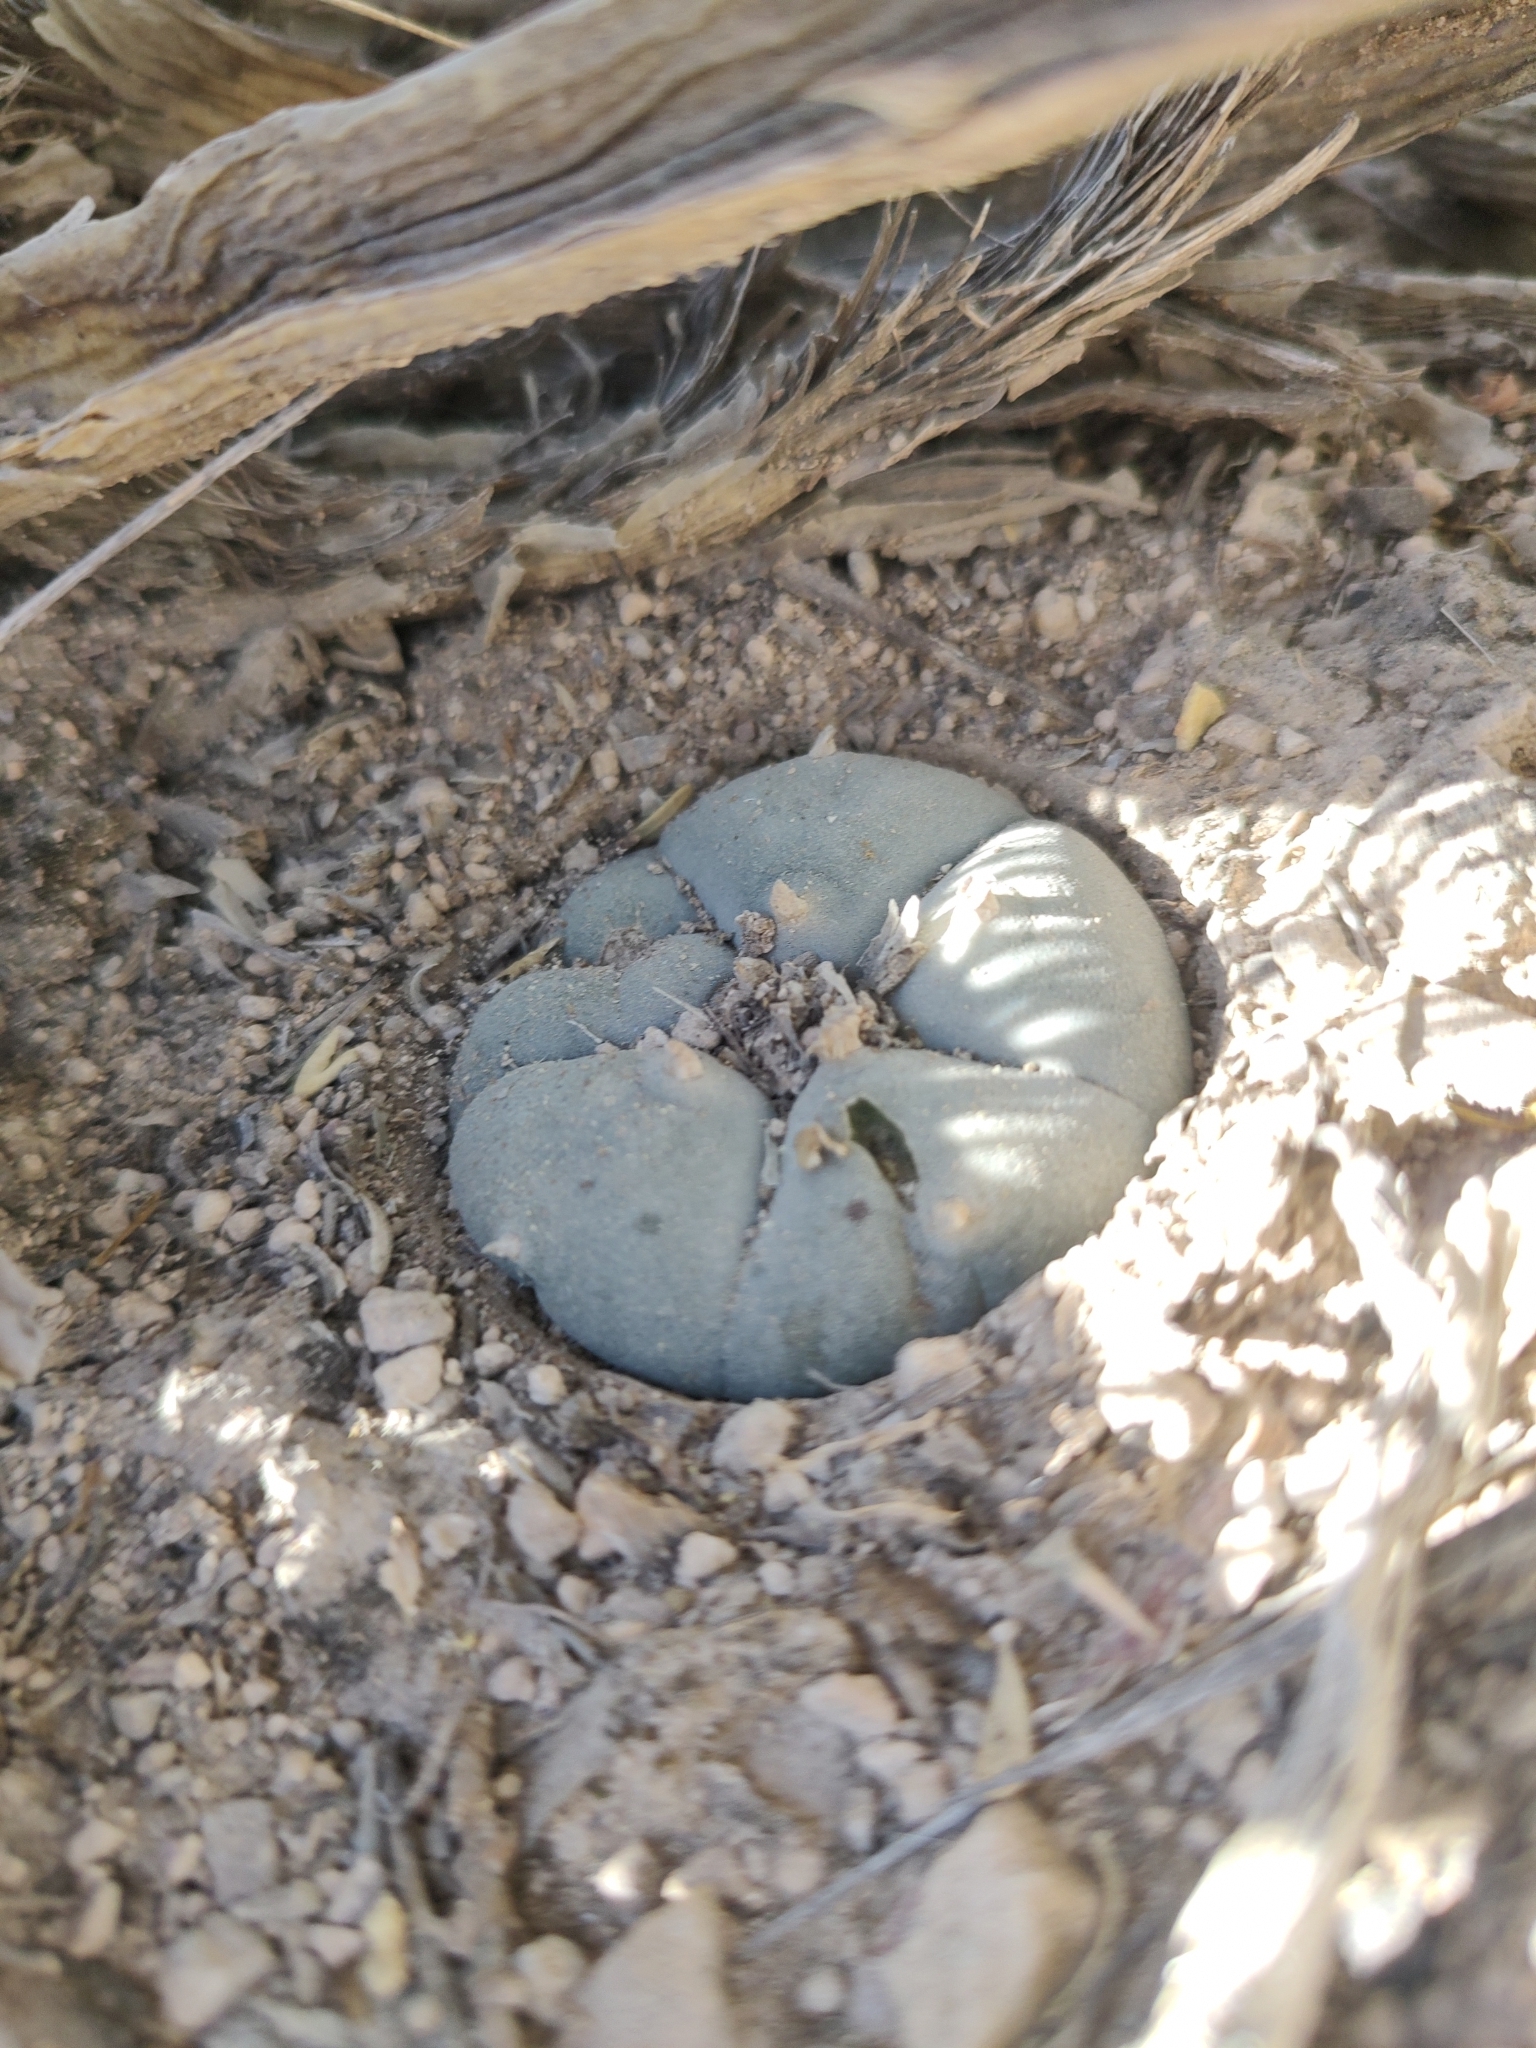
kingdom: Plantae
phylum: Tracheophyta
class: Magnoliopsida
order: Caryophyllales
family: Cactaceae
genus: Lophophora
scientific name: Lophophora williamsii
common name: Indian-dope
